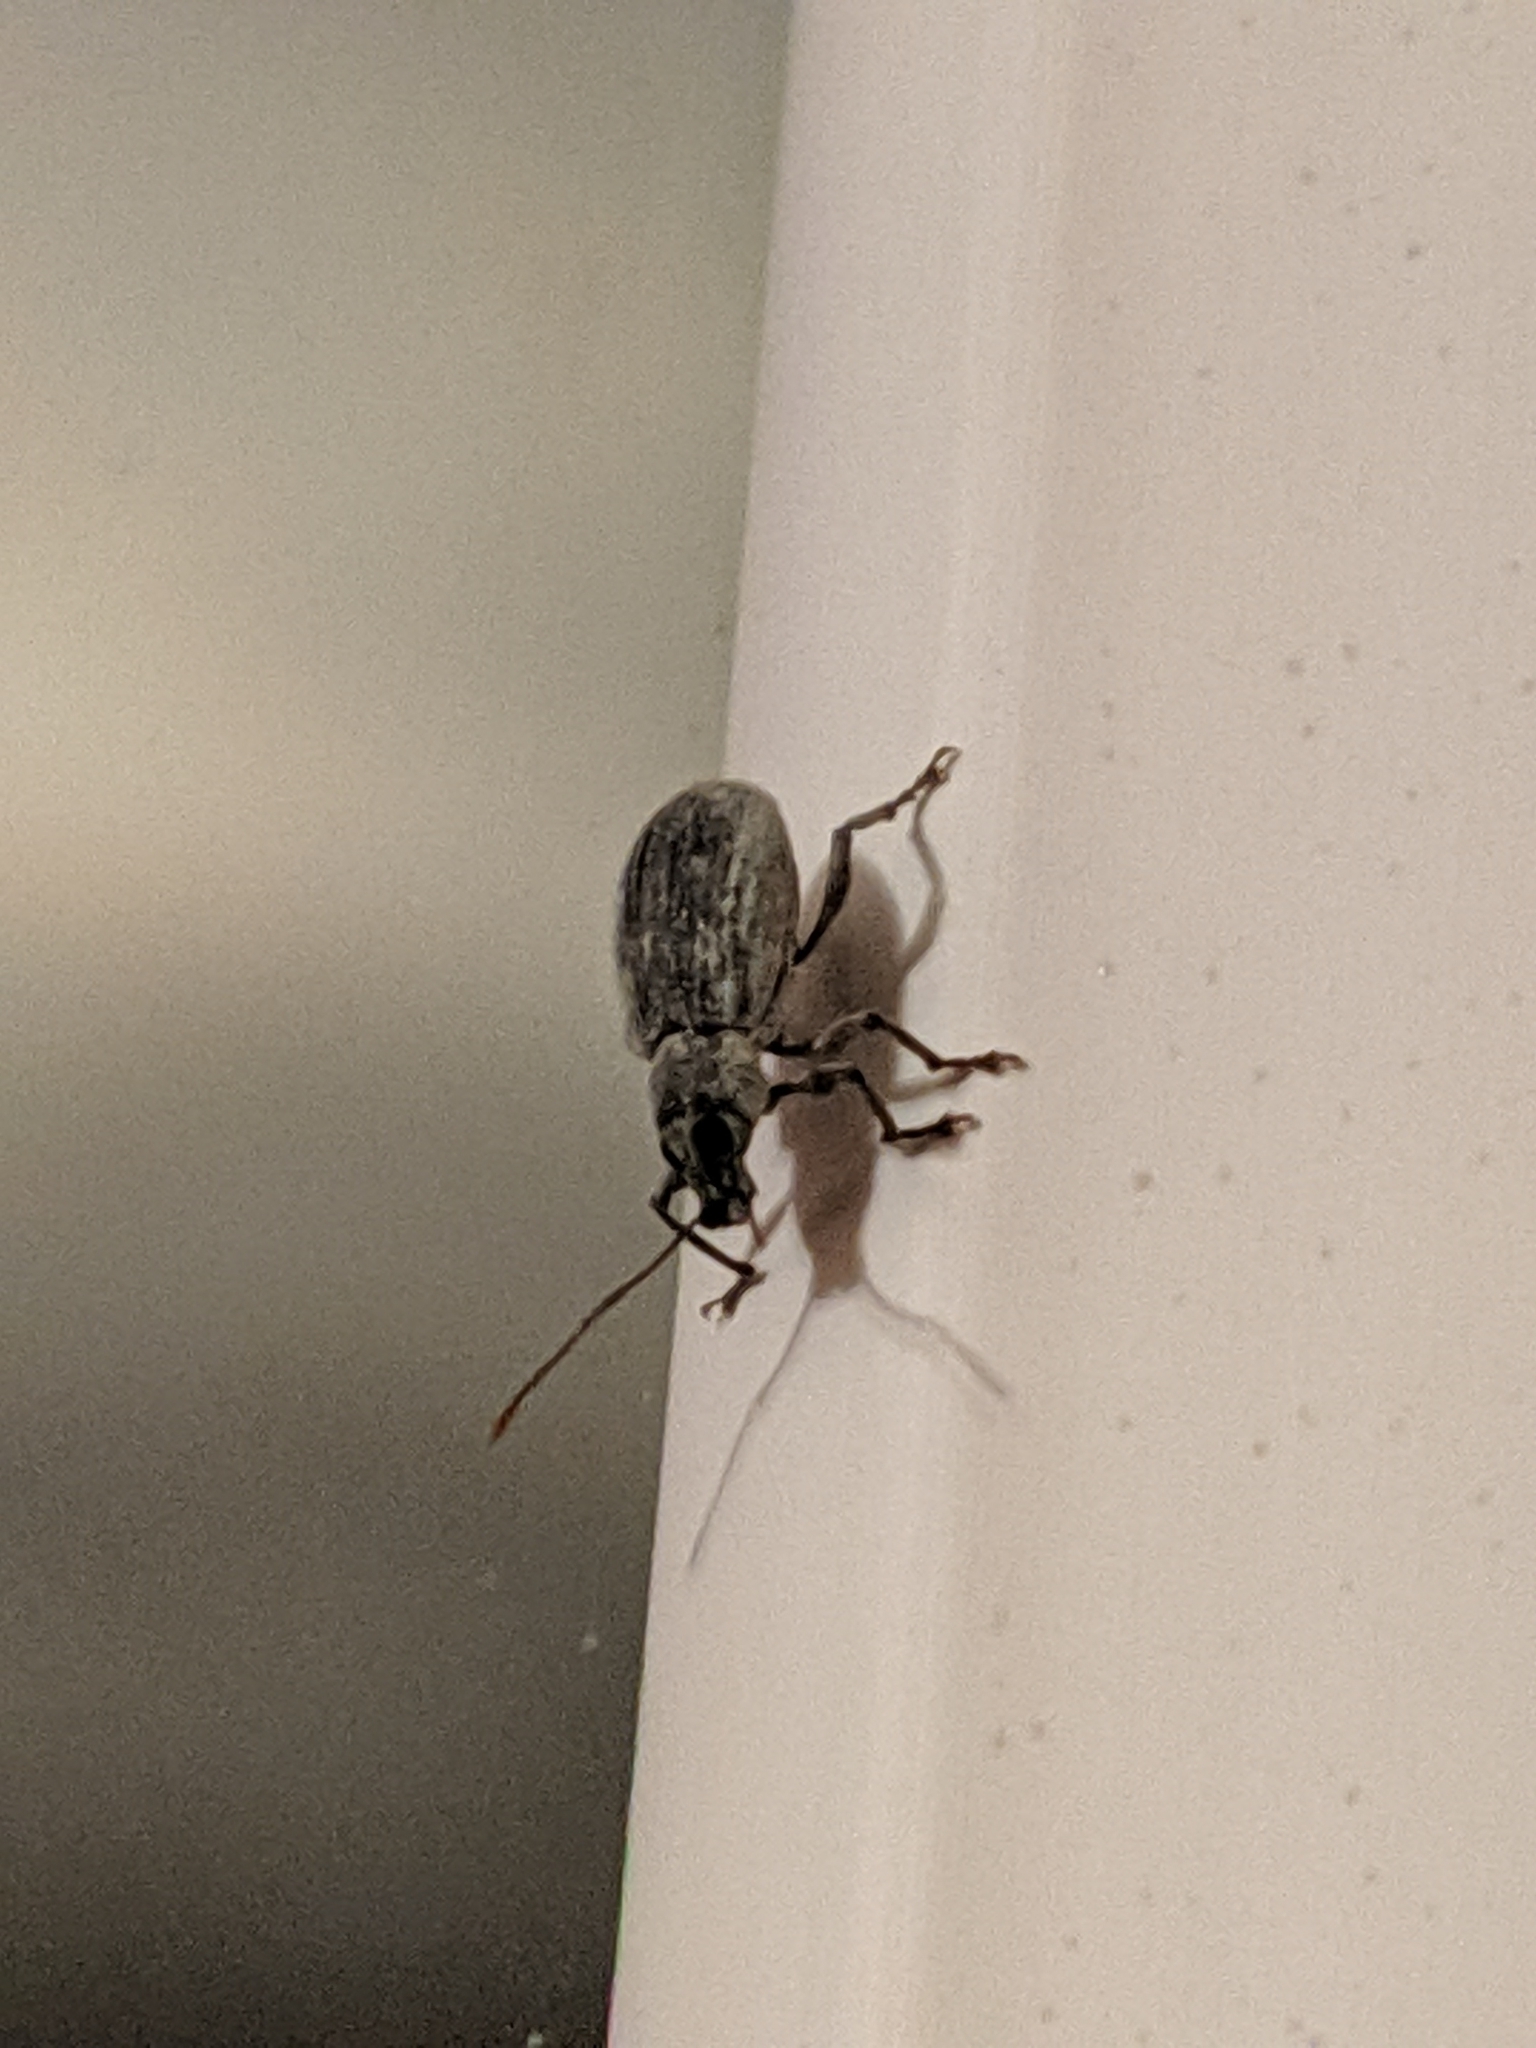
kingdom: Animalia
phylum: Arthropoda
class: Insecta
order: Coleoptera
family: Curculionidae
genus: Cyrtepistomus
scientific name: Cyrtepistomus castaneus
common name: Weevil
